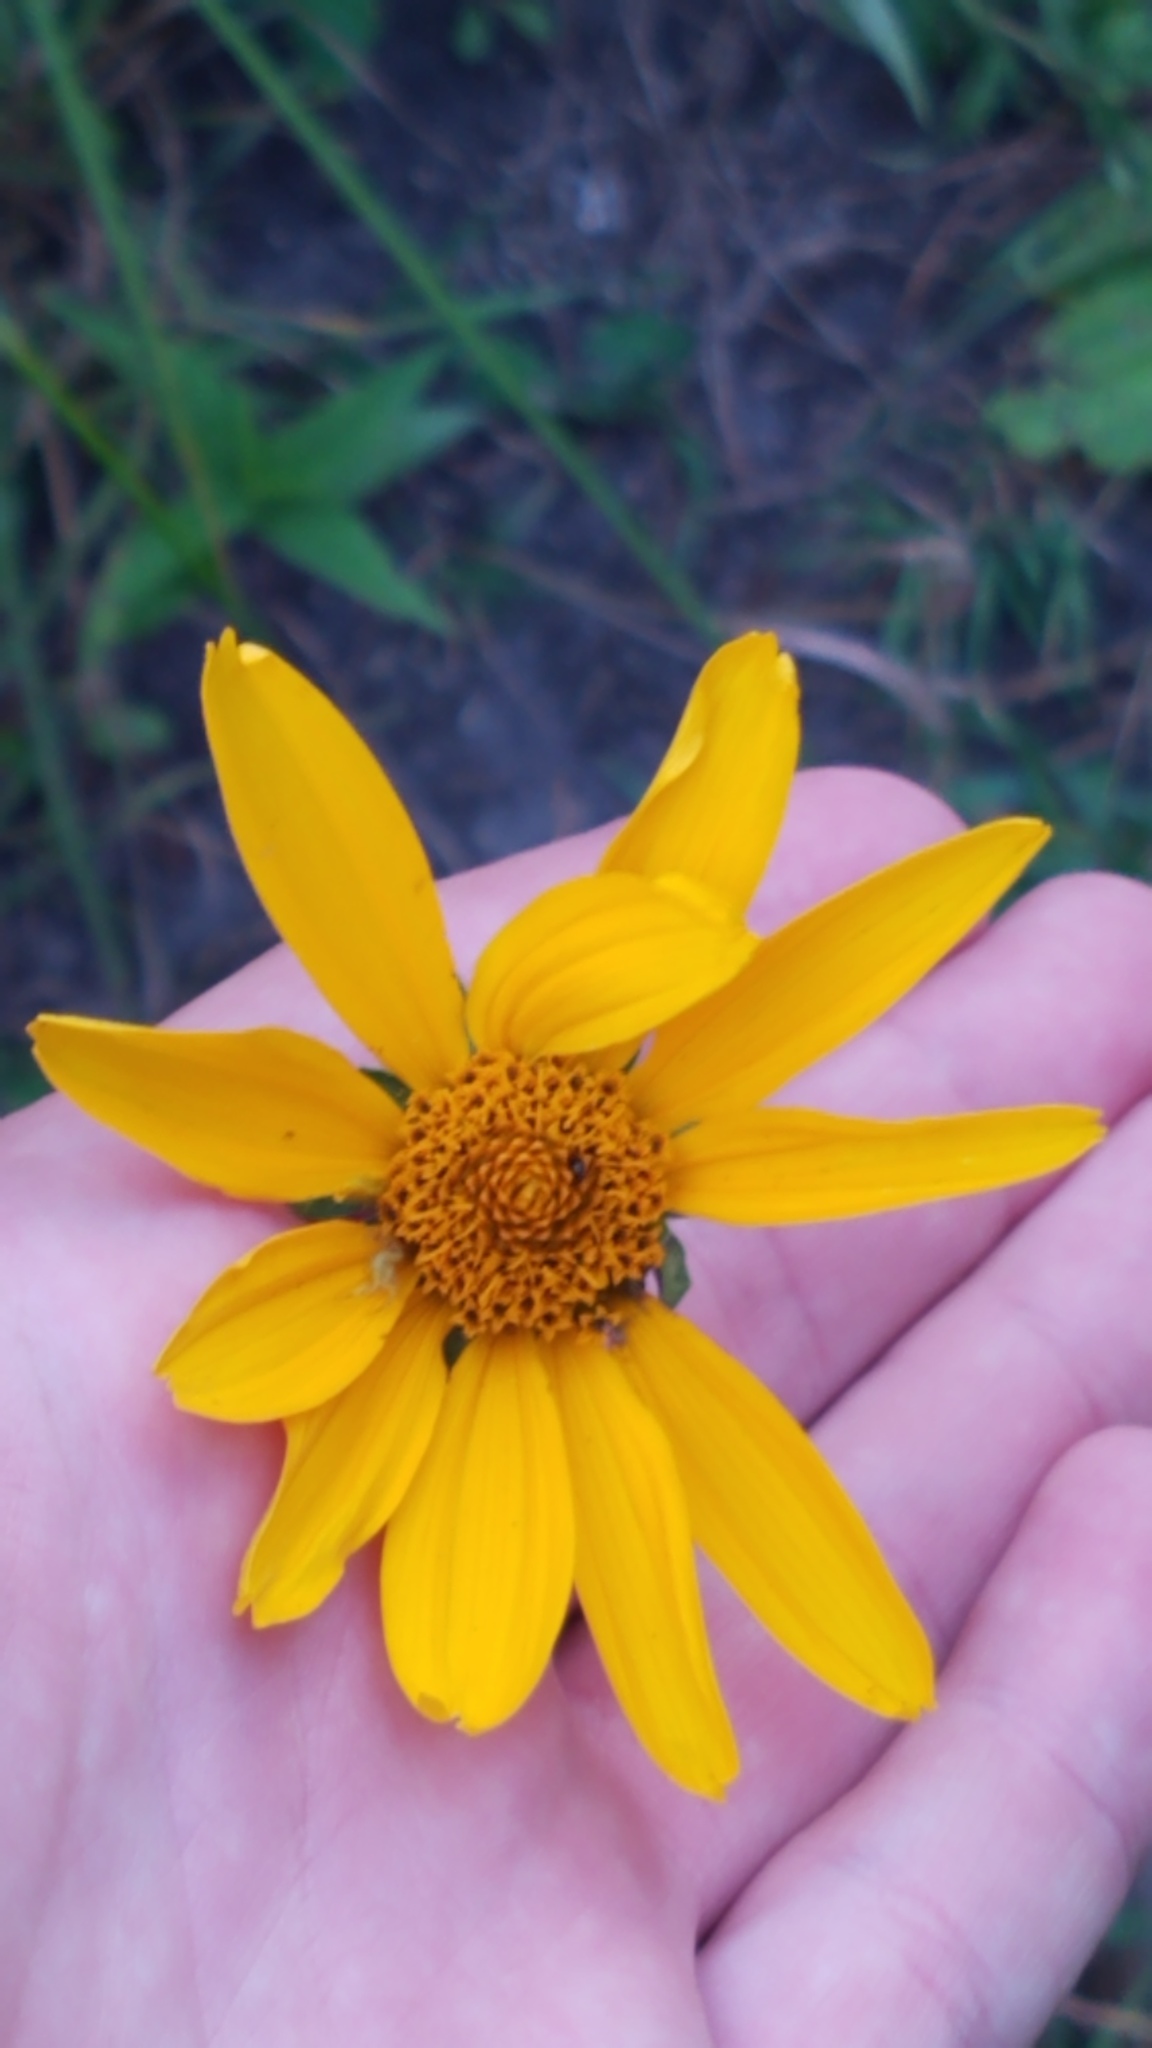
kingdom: Plantae
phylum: Tracheophyta
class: Magnoliopsida
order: Asterales
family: Asteraceae
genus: Heliopsis
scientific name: Heliopsis helianthoides
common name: False sunflower
